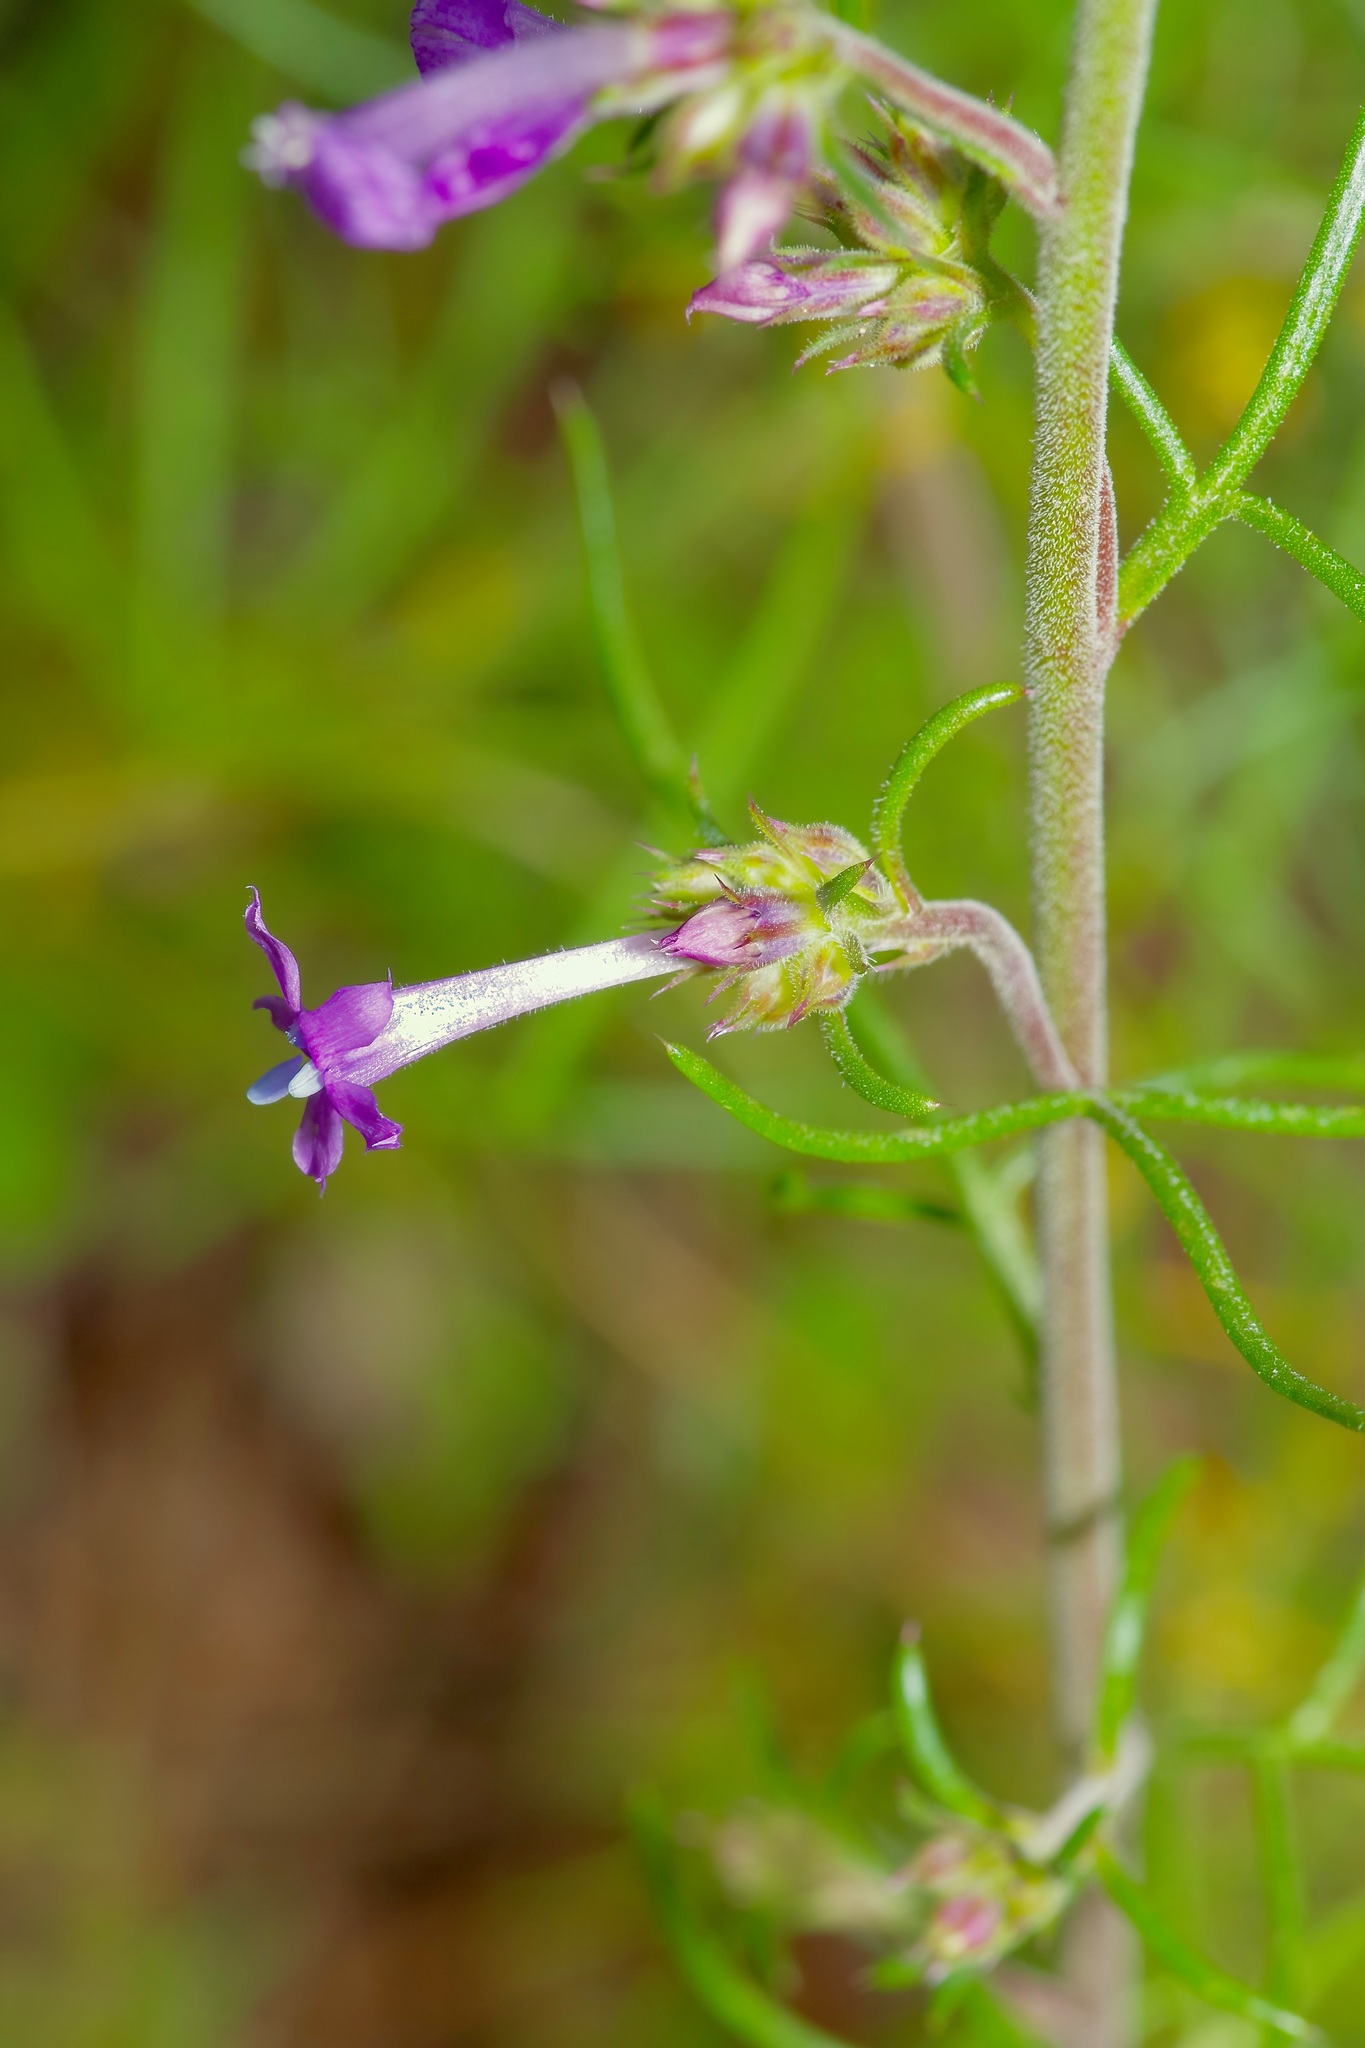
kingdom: Plantae
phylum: Tracheophyta
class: Magnoliopsida
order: Ericales
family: Polemoniaceae
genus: Ipomopsis
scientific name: Ipomopsis macombii
